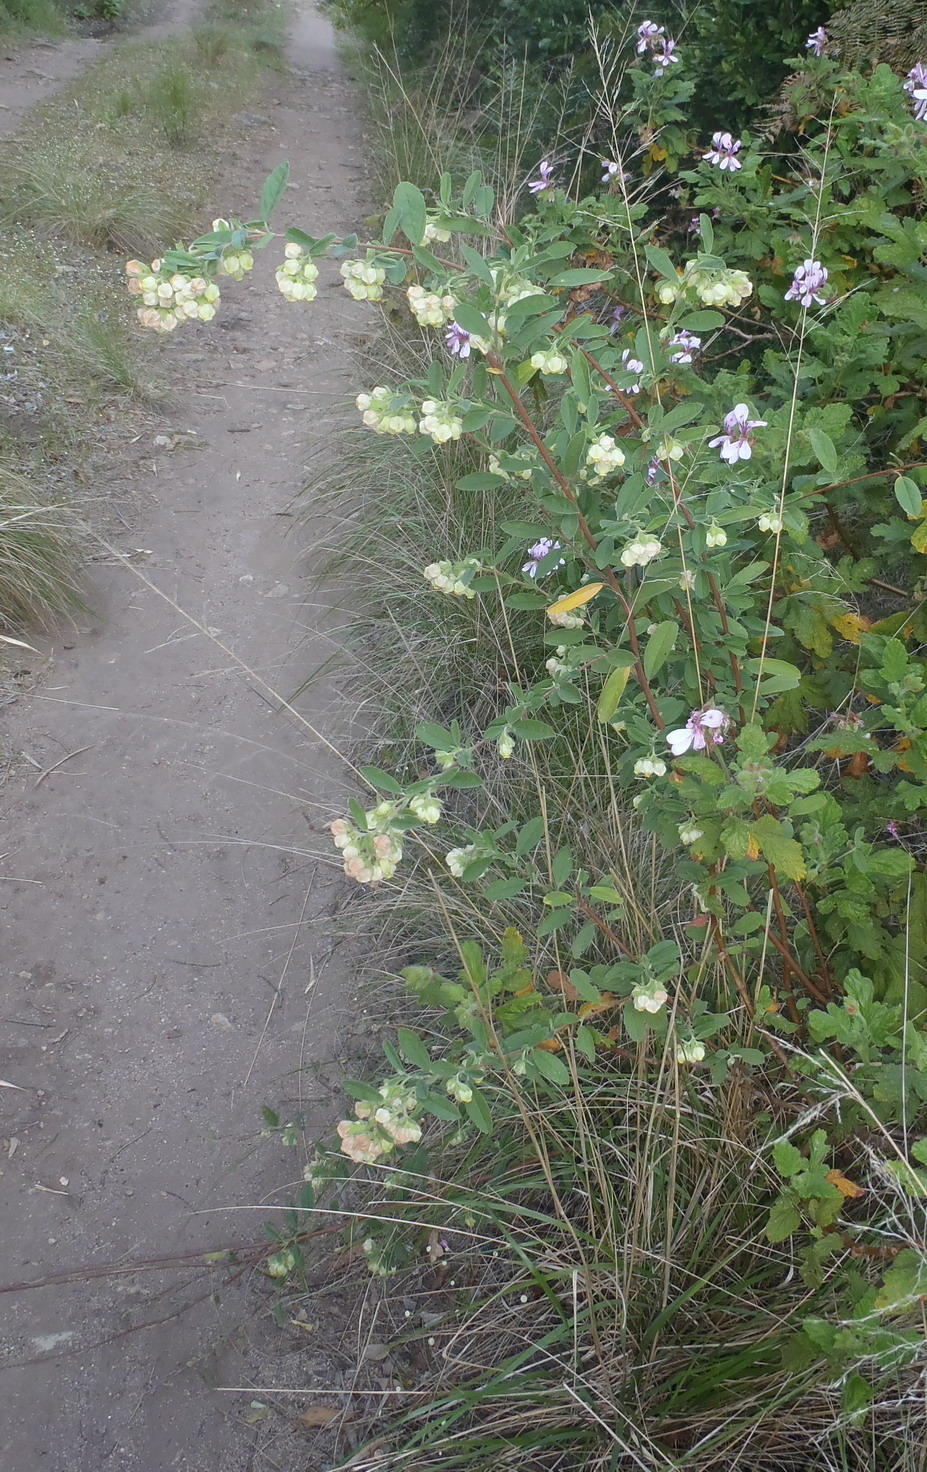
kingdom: Plantae
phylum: Tracheophyta
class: Magnoliopsida
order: Malvales
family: Malvaceae
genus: Hermannia
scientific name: Hermannia hyssopifolia
